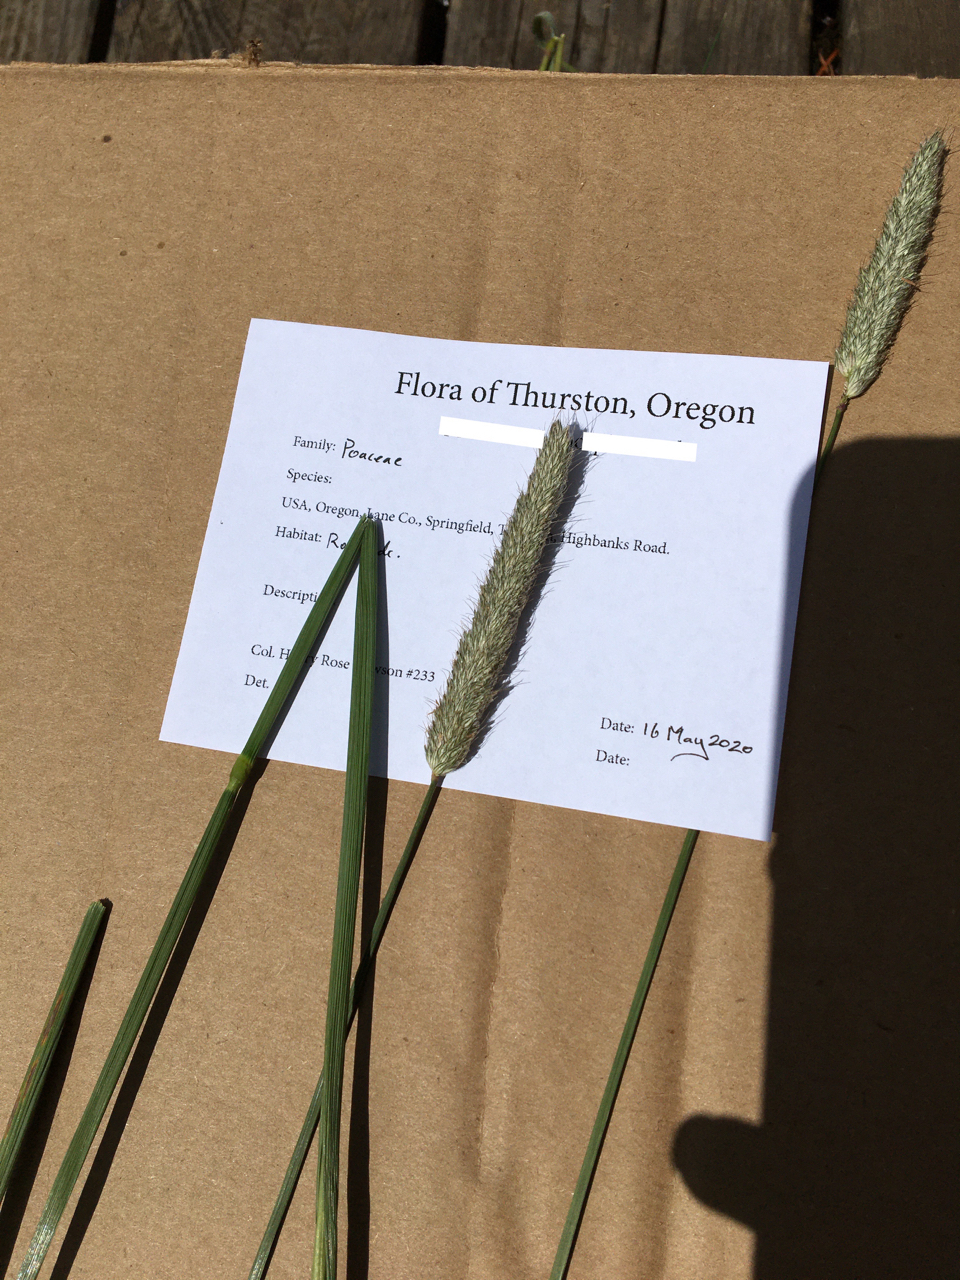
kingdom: Plantae
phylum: Tracheophyta
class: Liliopsida
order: Poales
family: Poaceae
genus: Alopecurus
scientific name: Alopecurus pratensis
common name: Meadow foxtail
